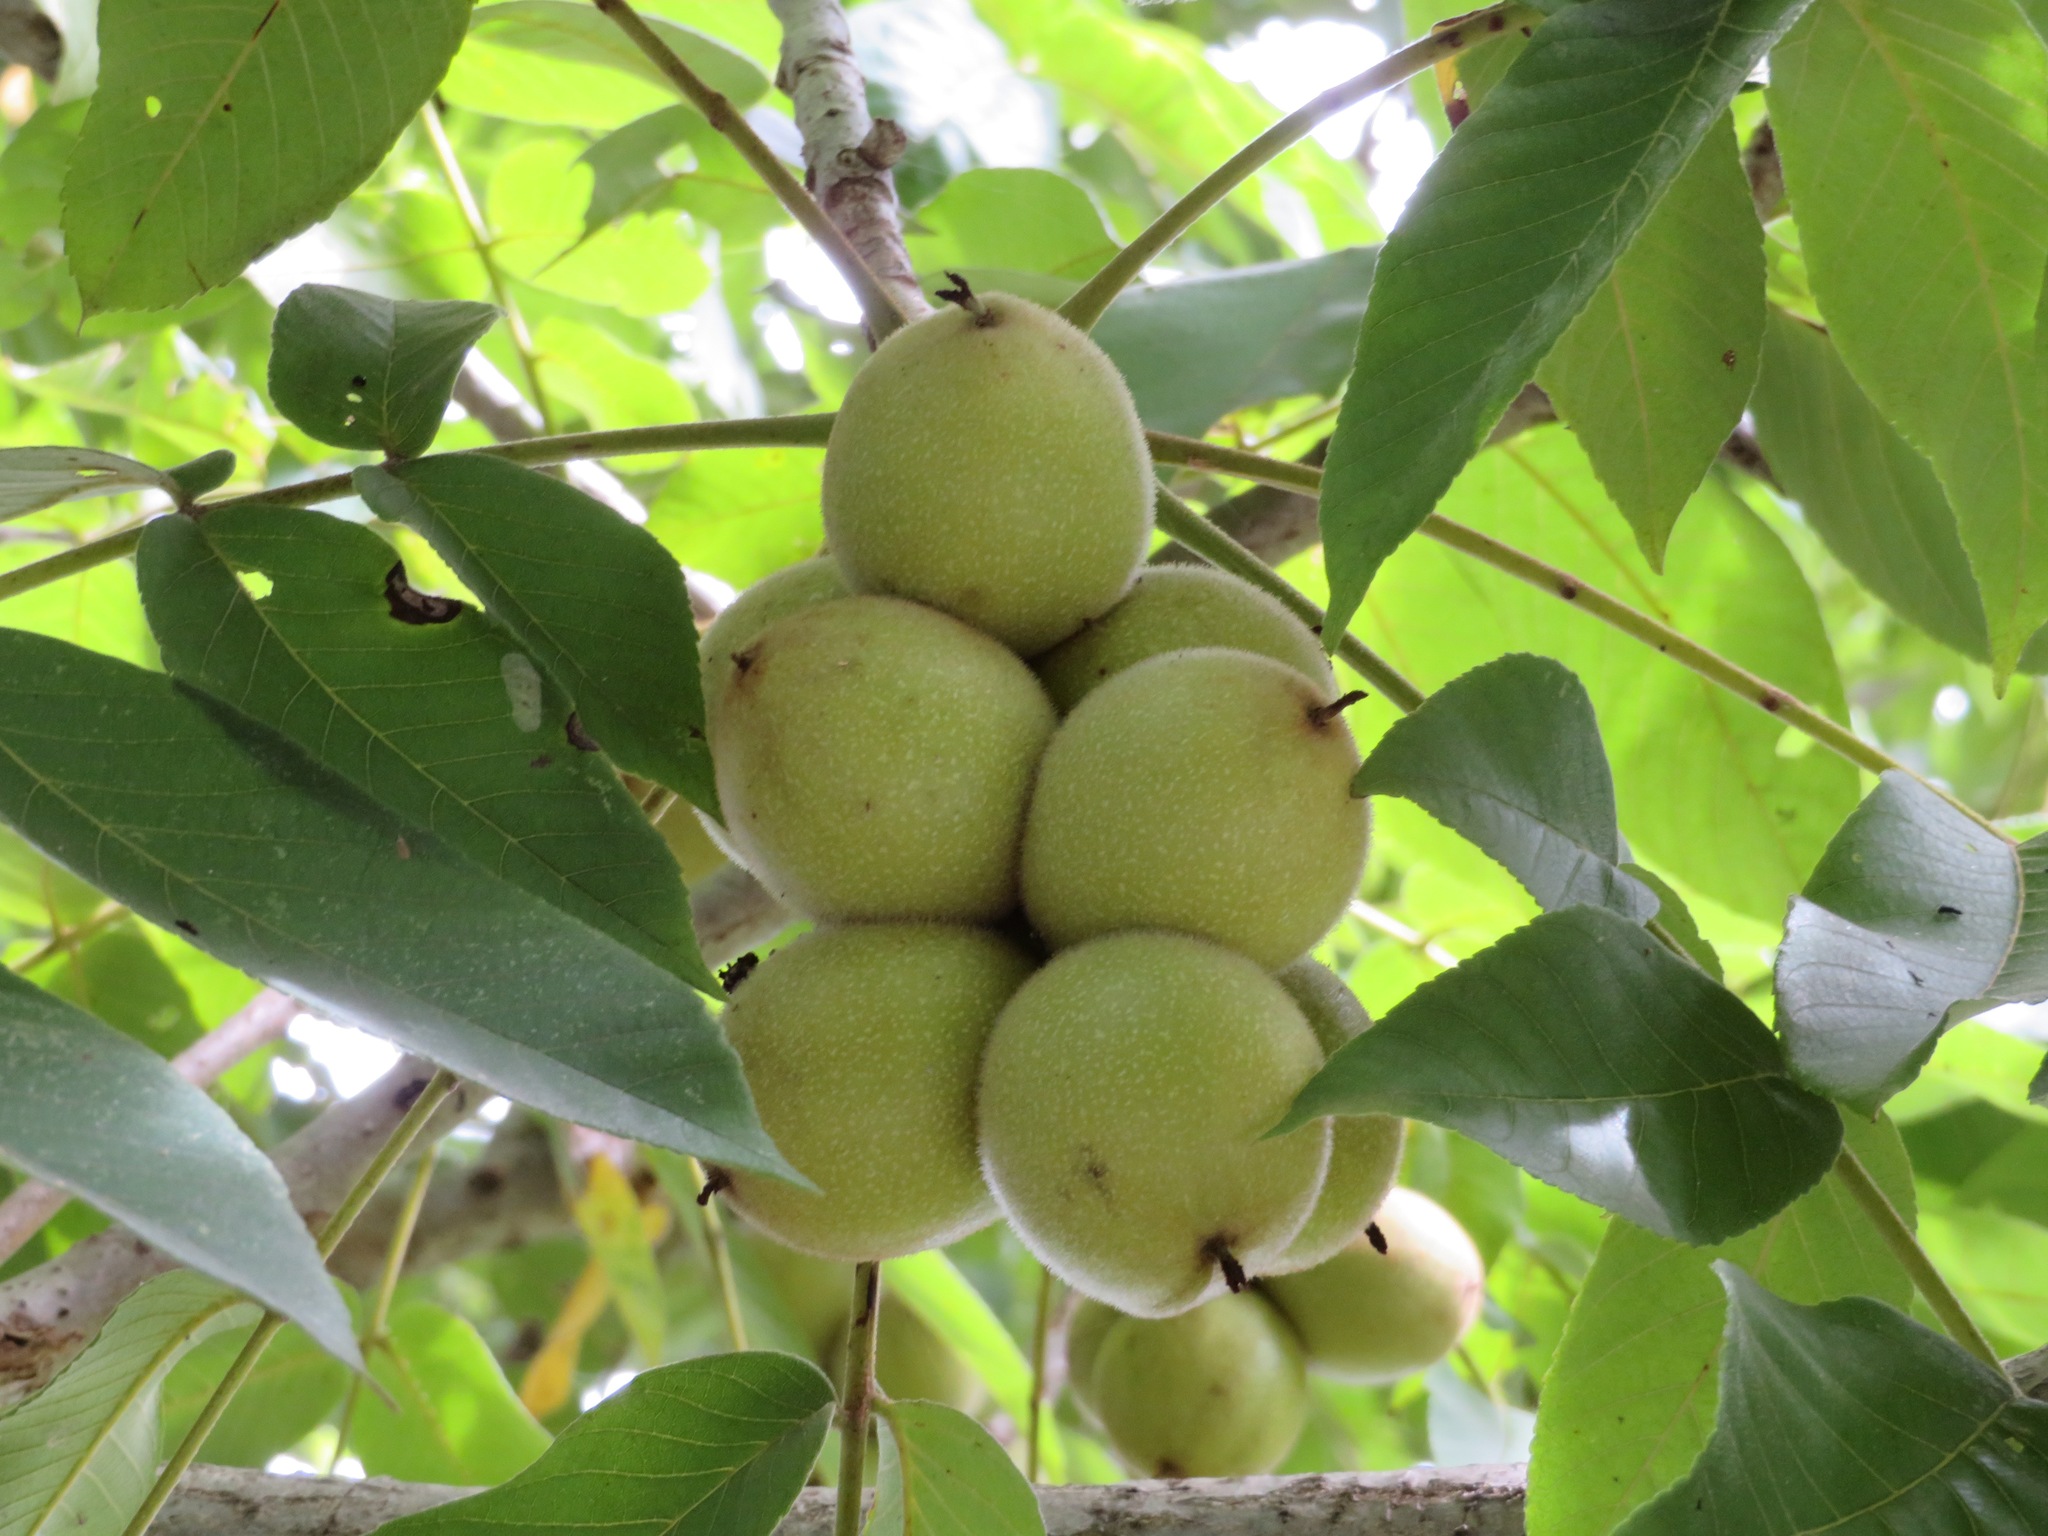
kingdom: Plantae
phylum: Tracheophyta
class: Magnoliopsida
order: Fagales
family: Juglandaceae
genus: Juglans
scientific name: Juglans ailantifolia
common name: Japanese walnut
